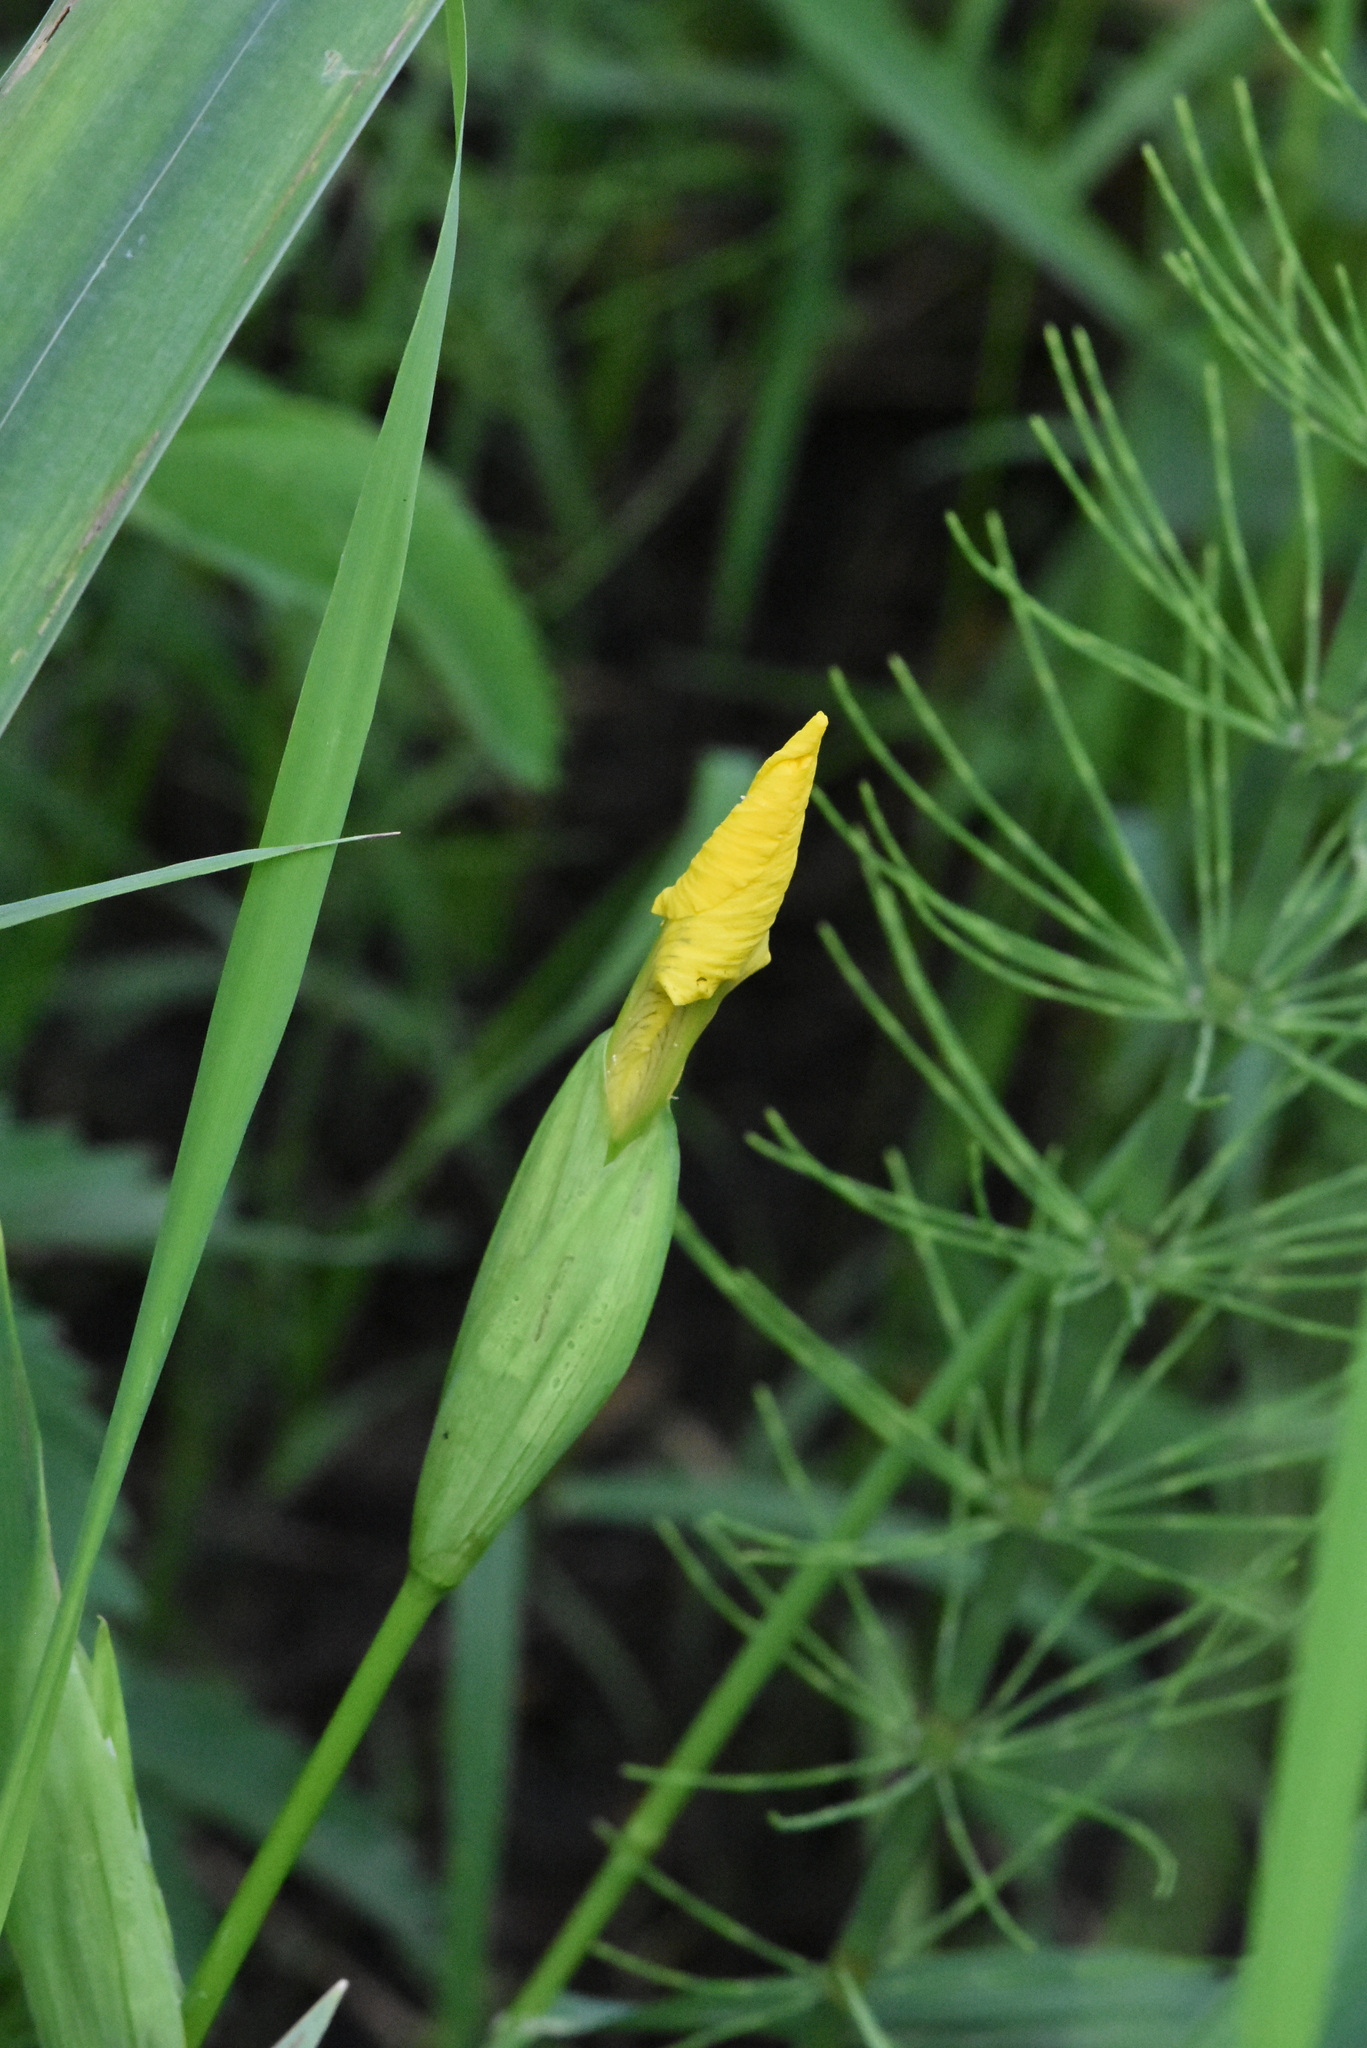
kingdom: Plantae
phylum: Tracheophyta
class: Liliopsida
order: Asparagales
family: Iridaceae
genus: Iris
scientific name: Iris pseudacorus
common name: Yellow flag
